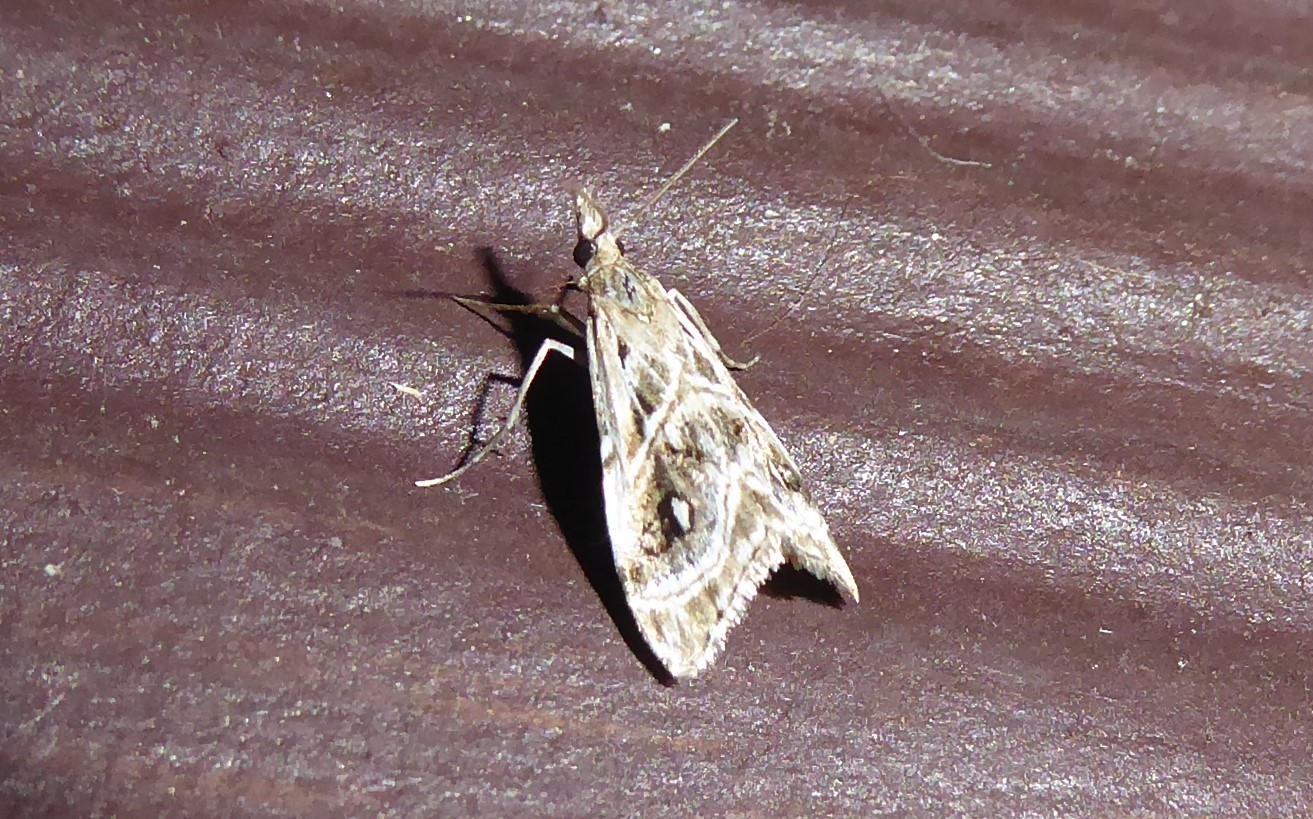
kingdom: Animalia
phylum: Arthropoda
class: Insecta
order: Lepidoptera
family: Crambidae
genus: Gadira
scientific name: Gadira acerella
